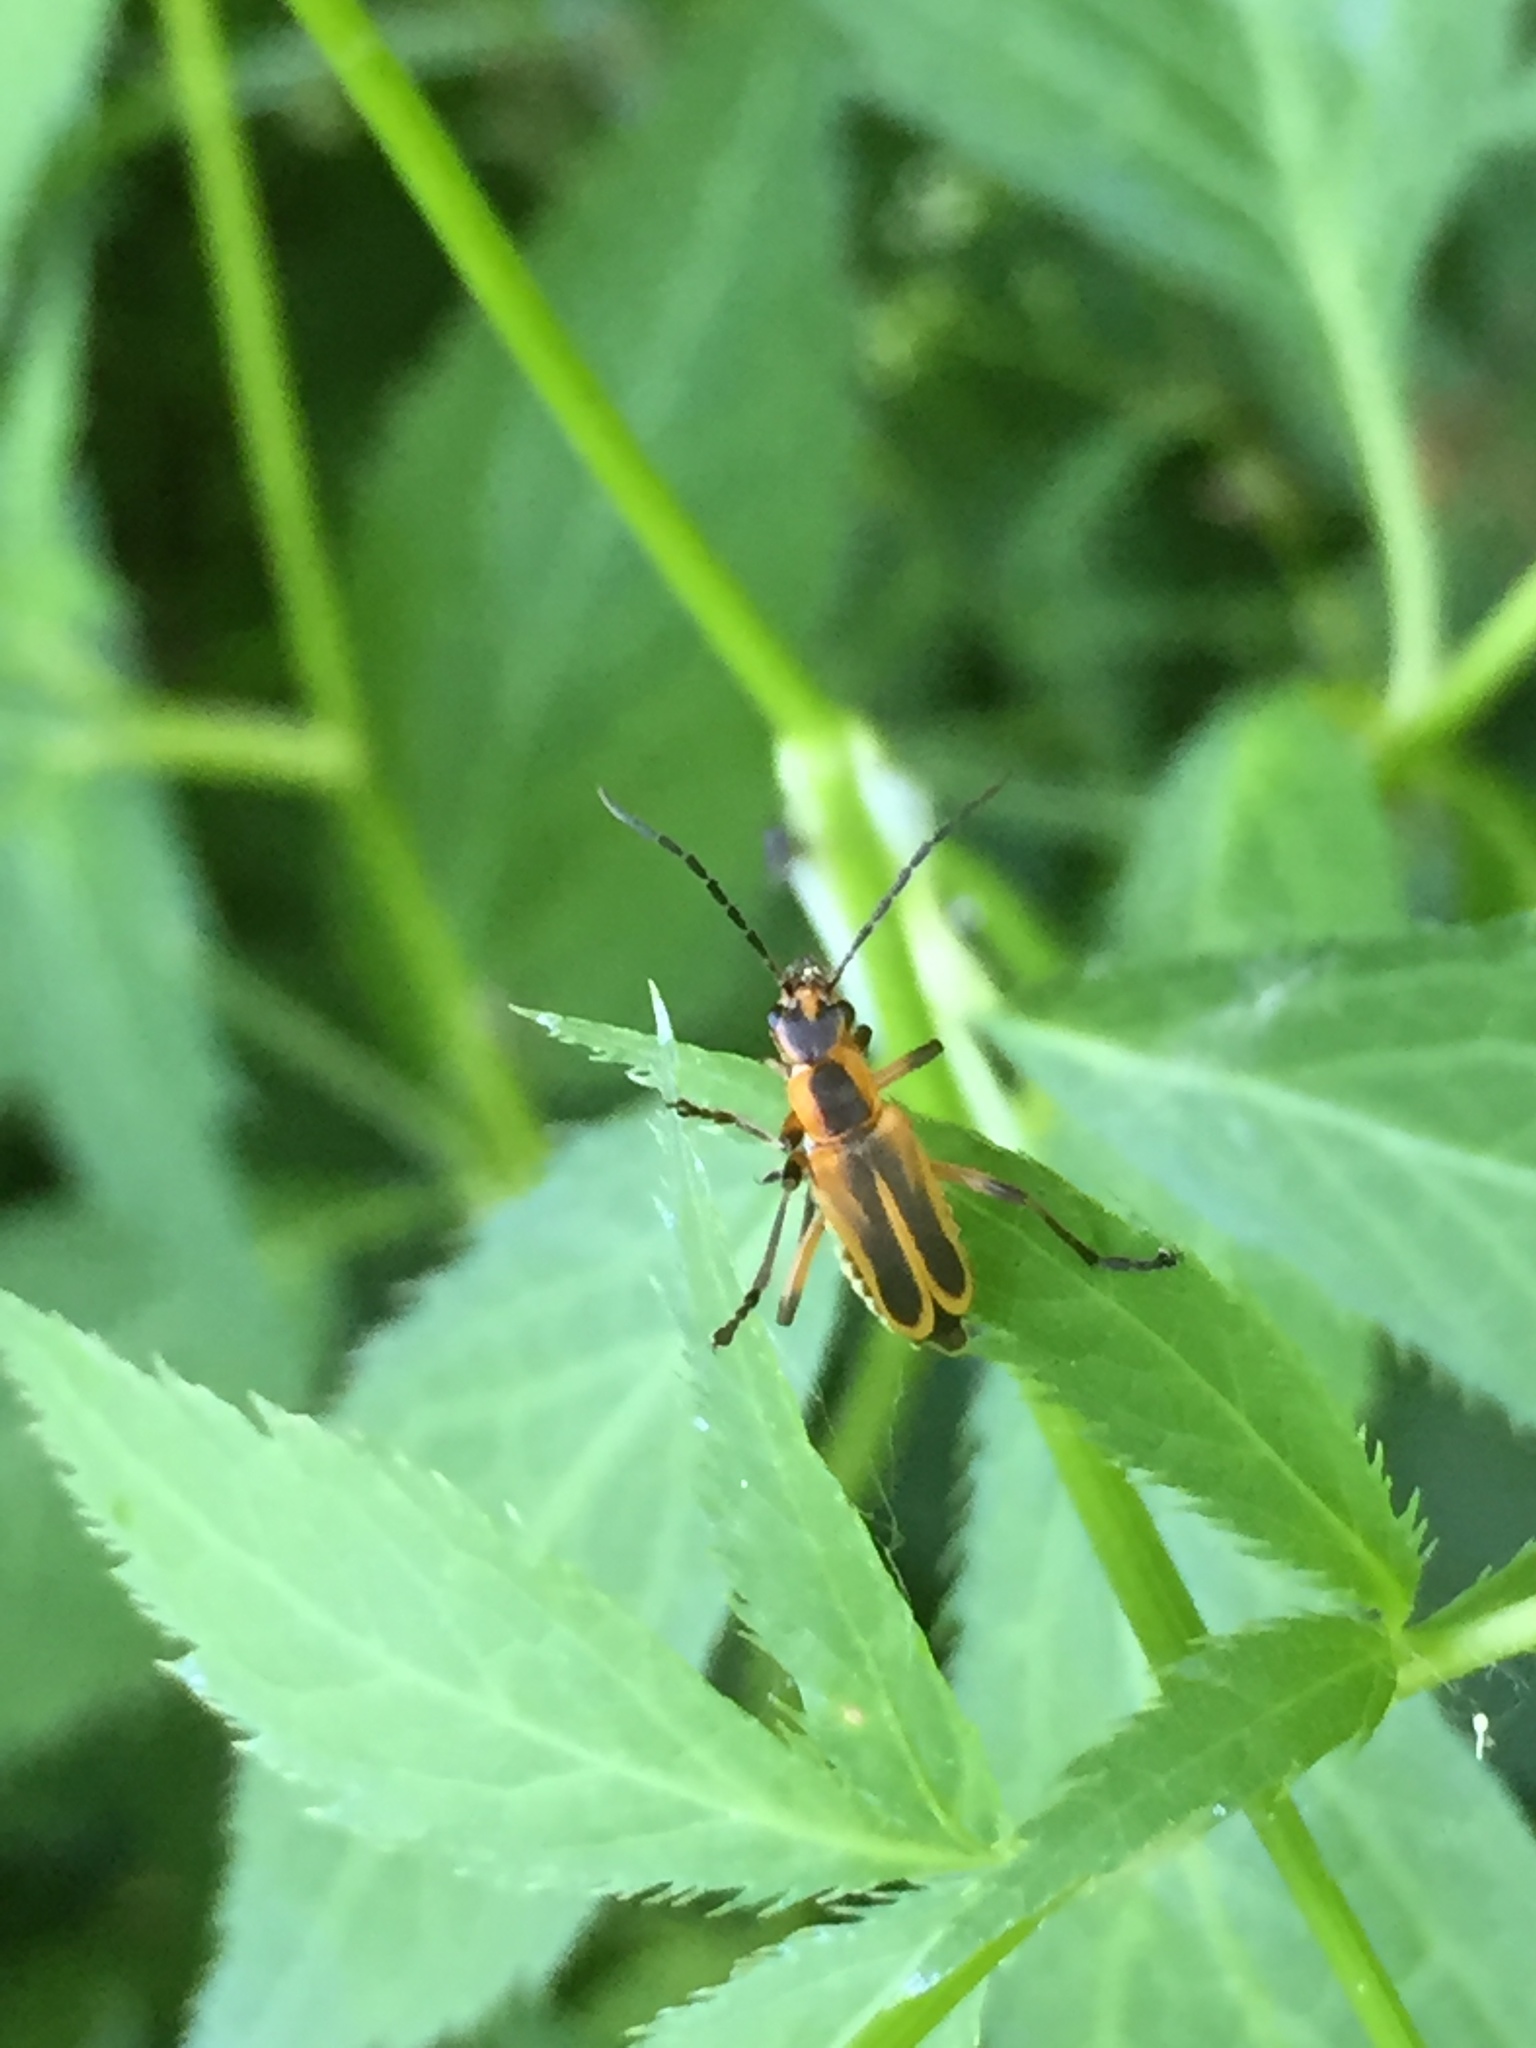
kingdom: Animalia
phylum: Arthropoda
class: Insecta
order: Coleoptera
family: Cantharidae
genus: Chauliognathus
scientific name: Chauliognathus marginatus
